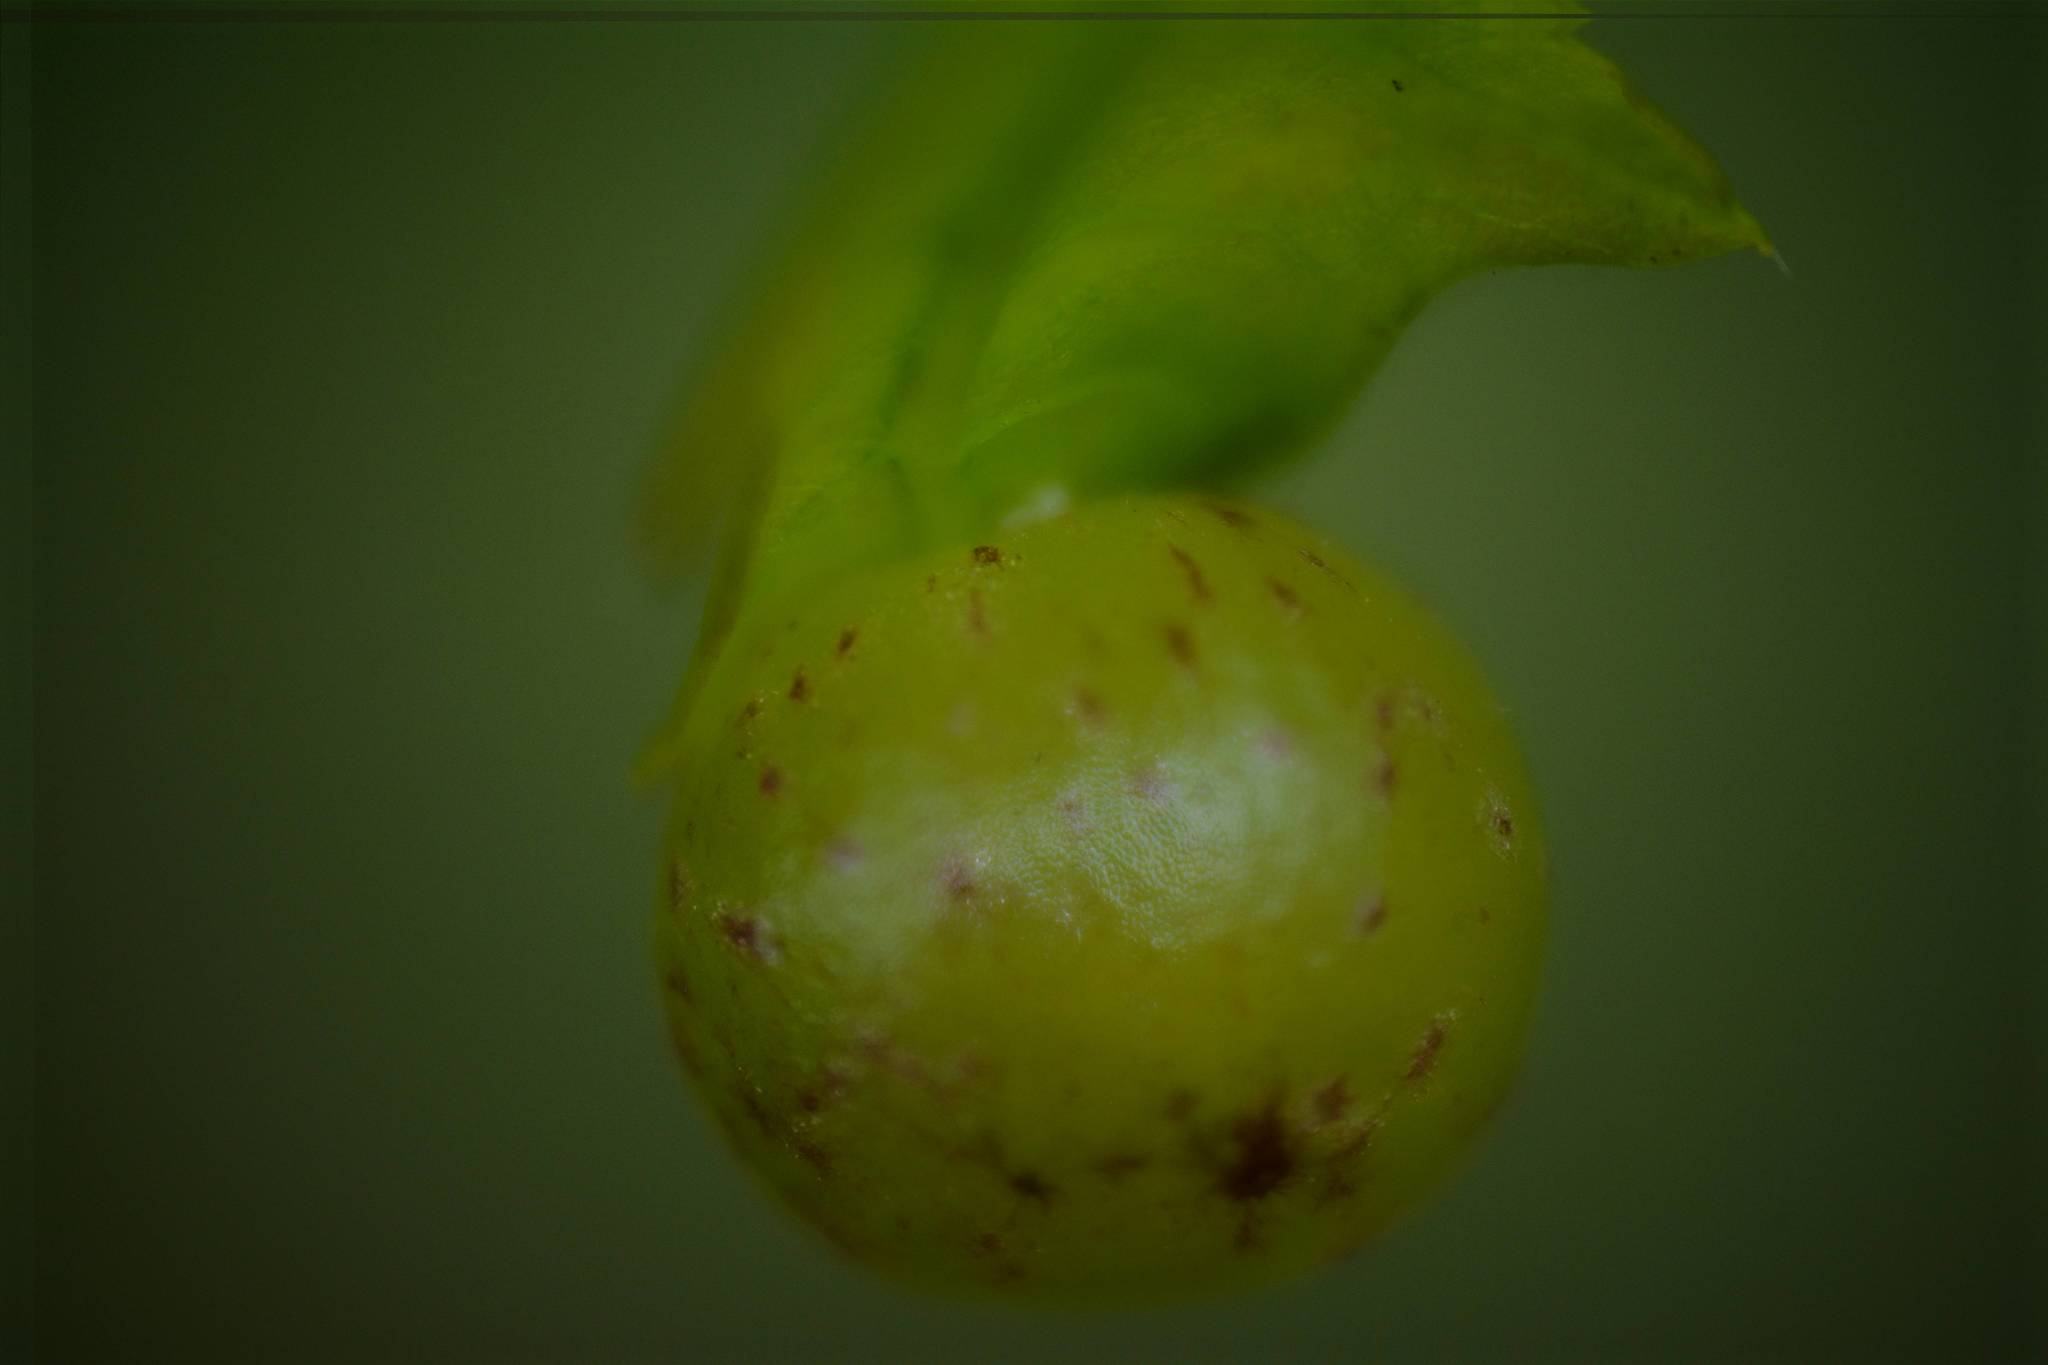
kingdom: Animalia
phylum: Arthropoda
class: Insecta
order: Hymenoptera
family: Cynipidae
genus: Neuroterus
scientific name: Neuroterus quercusbaccarum
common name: Common spangle gall
